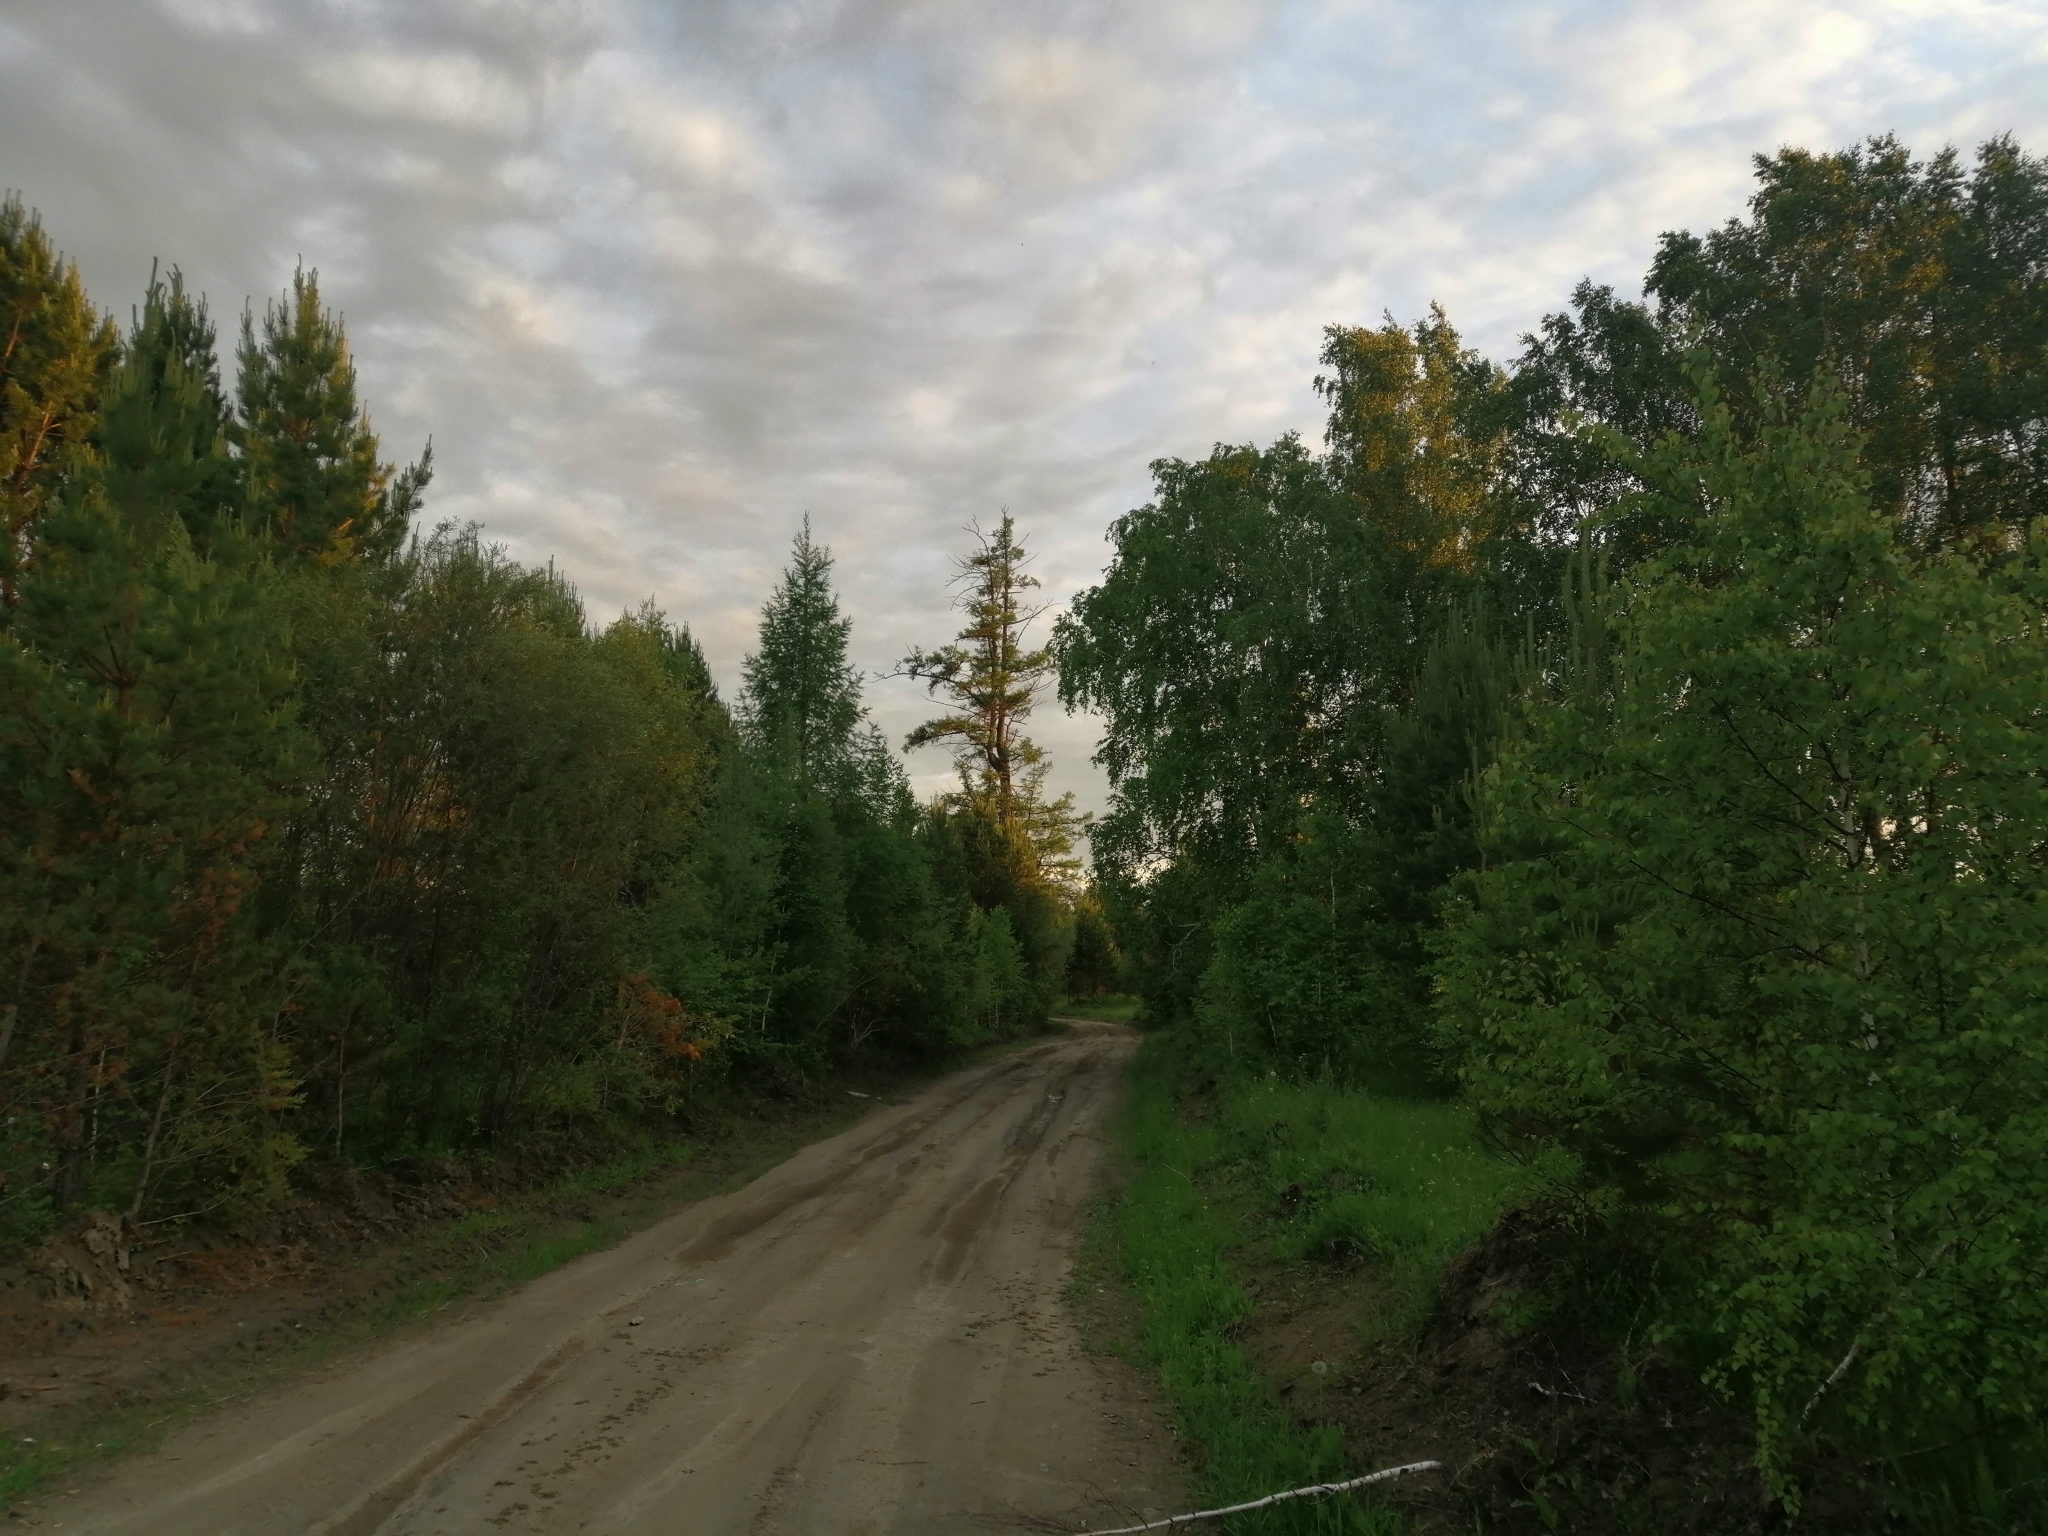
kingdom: Plantae
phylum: Tracheophyta
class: Pinopsida
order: Pinales
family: Pinaceae
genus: Larix
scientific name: Larix sibirica
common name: Siberian larch
